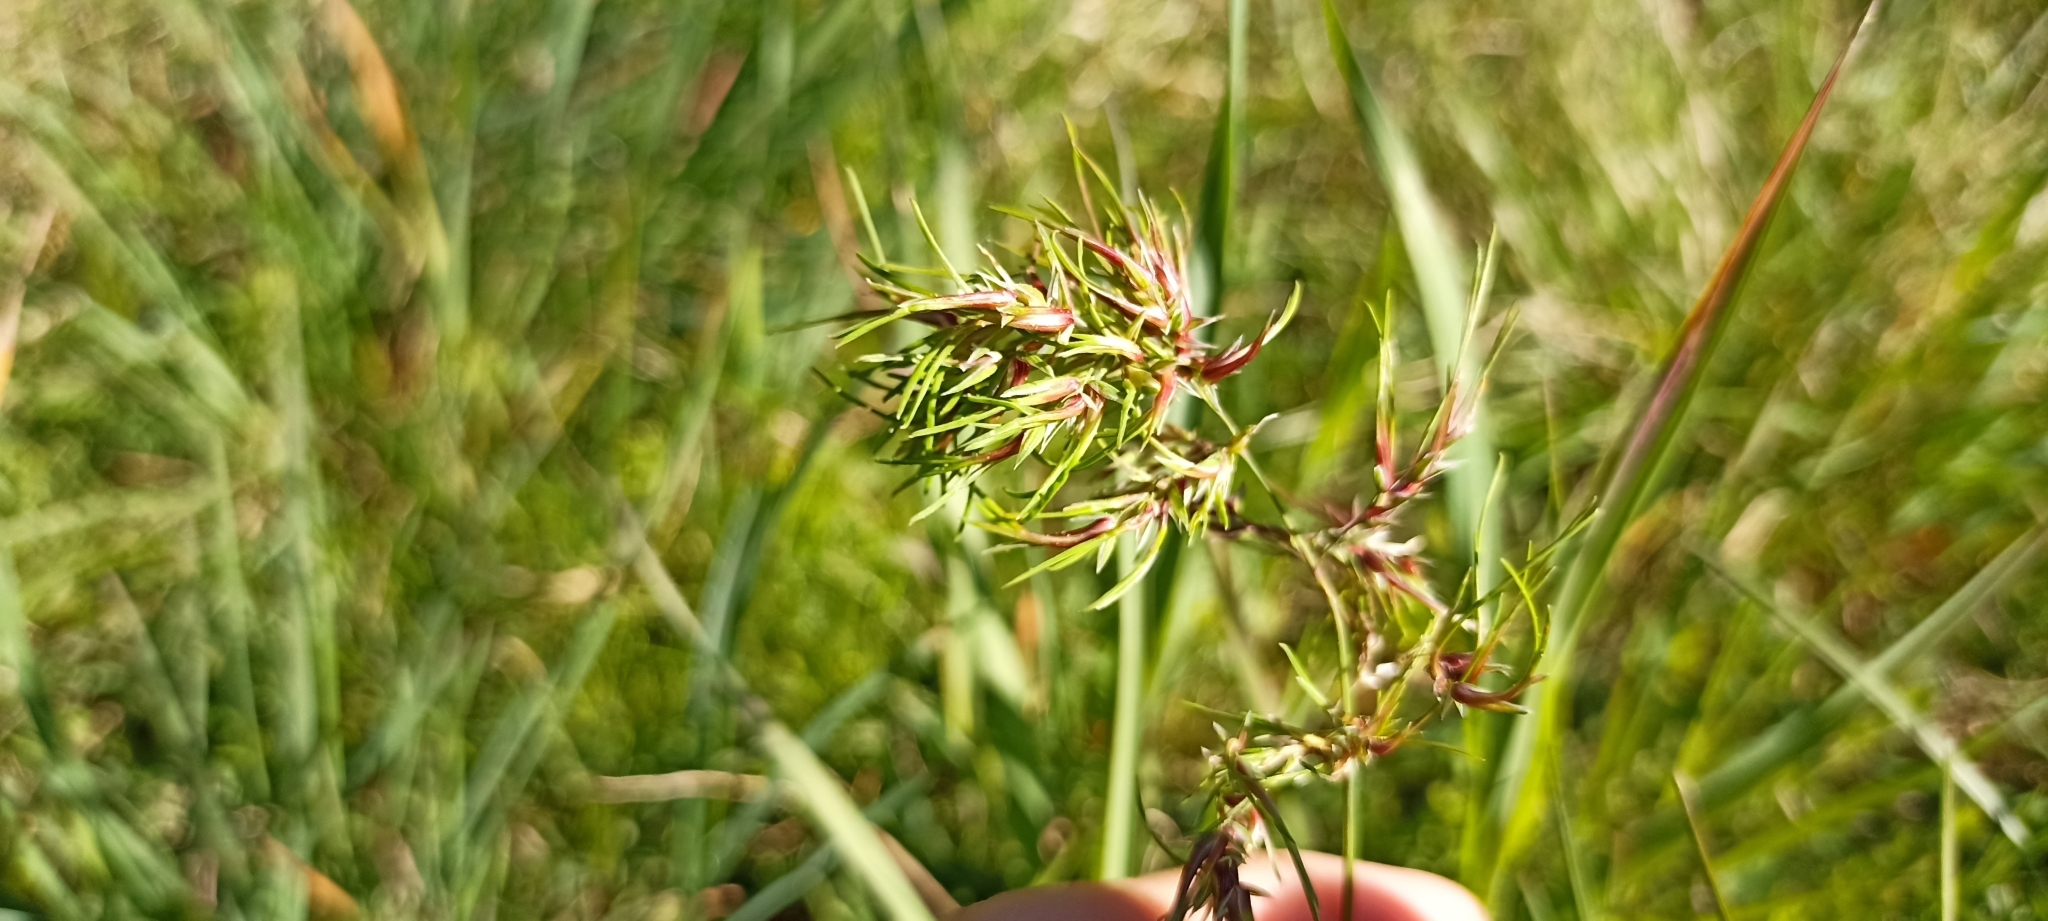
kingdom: Plantae
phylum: Tracheophyta
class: Liliopsida
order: Poales
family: Poaceae
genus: Poa
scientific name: Poa bulbosa
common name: Bulbous bluegrass
